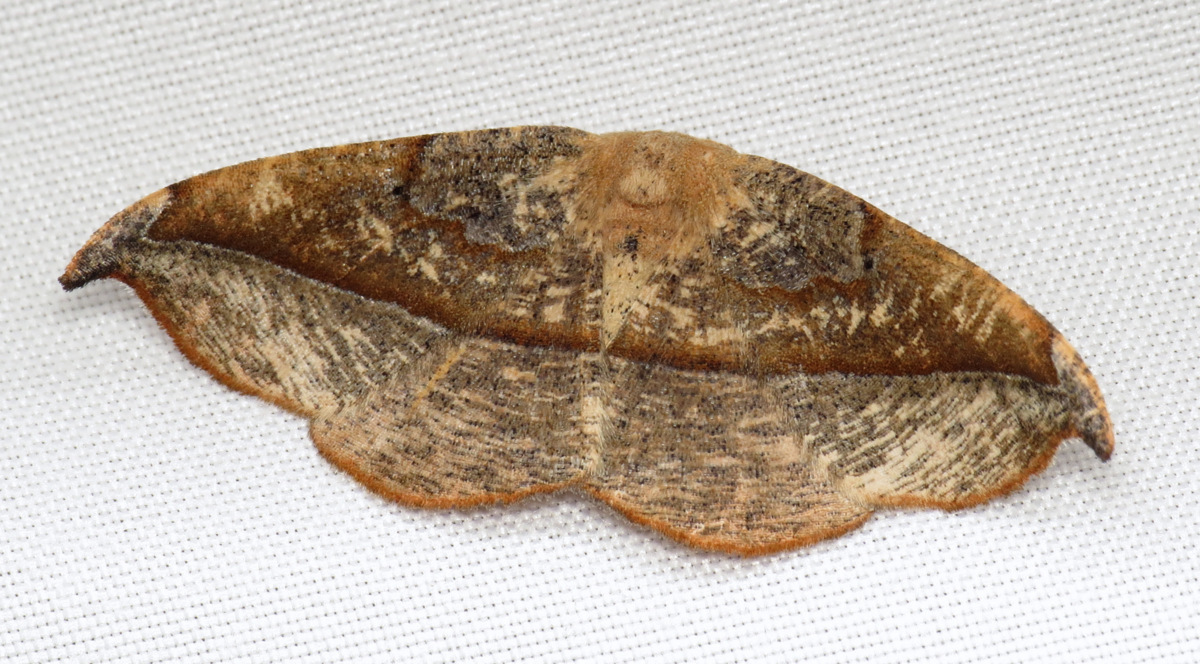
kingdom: Animalia
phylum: Arthropoda
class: Insecta
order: Lepidoptera
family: Geometridae
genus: Patalene
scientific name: Patalene olyzonaria
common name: Juniper geometer moth
